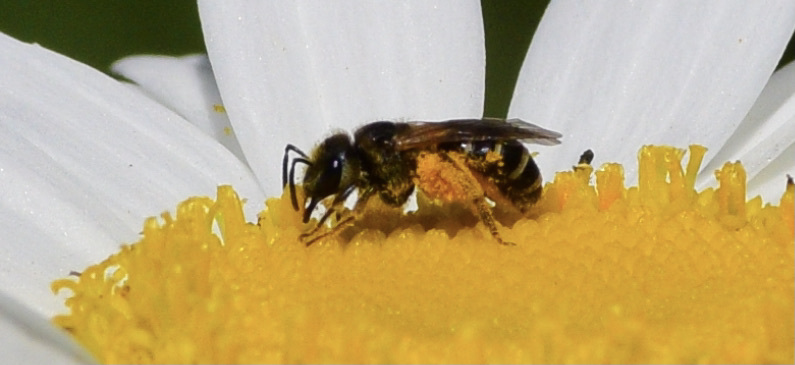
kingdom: Animalia
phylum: Arthropoda
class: Insecta
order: Hymenoptera
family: Halictidae
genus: Halictus
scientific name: Halictus ligatus
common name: Ligated furrow bee
